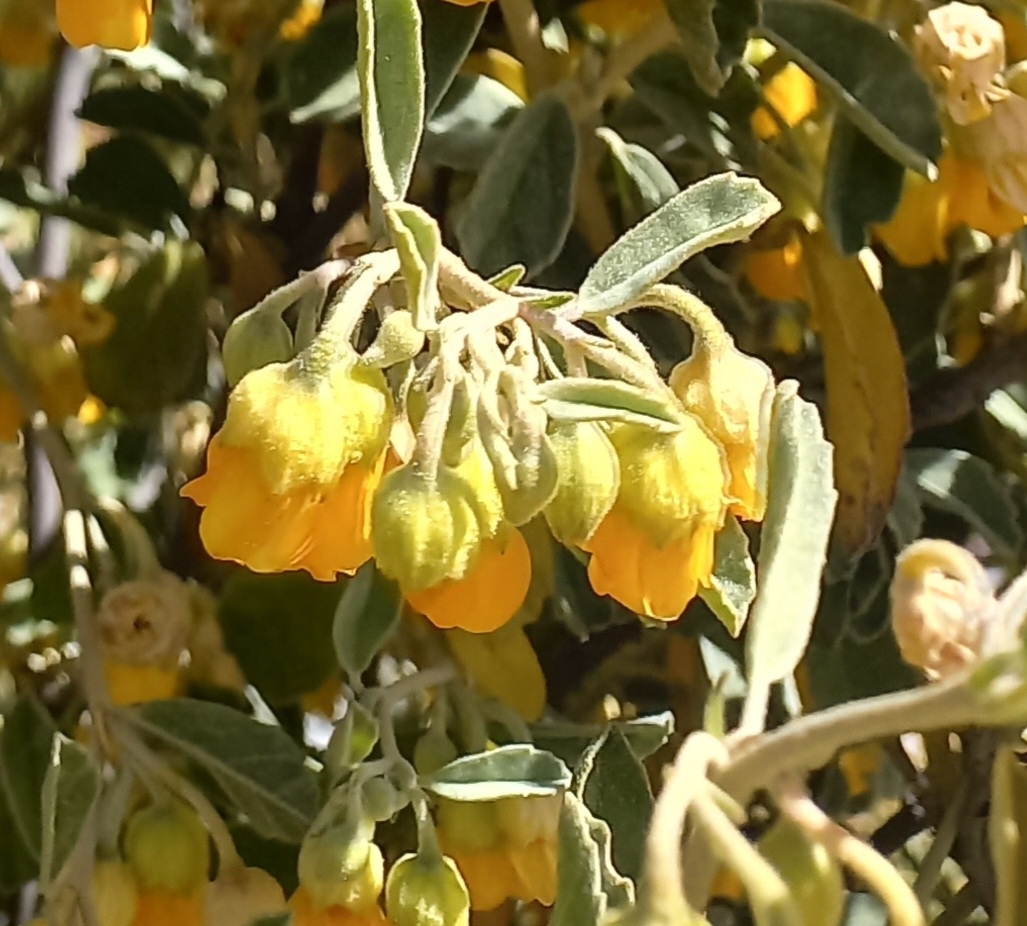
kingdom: Plantae
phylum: Tracheophyta
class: Magnoliopsida
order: Malvales
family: Malvaceae
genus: Hermannia
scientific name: Hermannia holosericea
